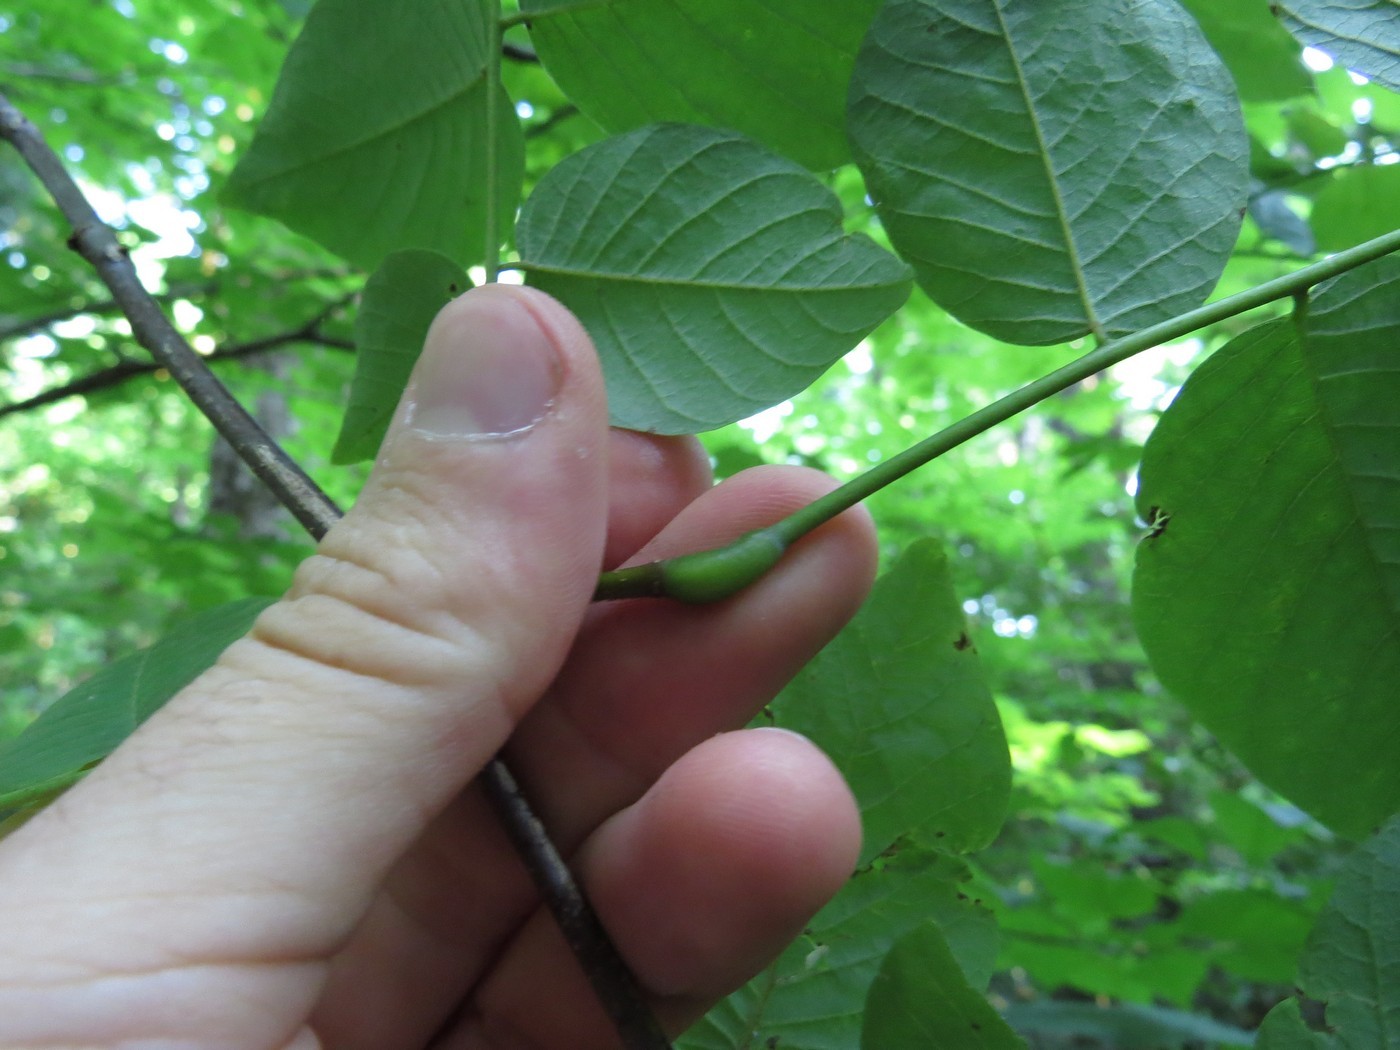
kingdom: Plantae
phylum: Tracheophyta
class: Magnoliopsida
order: Fabales
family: Fabaceae
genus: Cladrastis
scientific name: Cladrastis kentukea
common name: Kentucky yellow-wood
